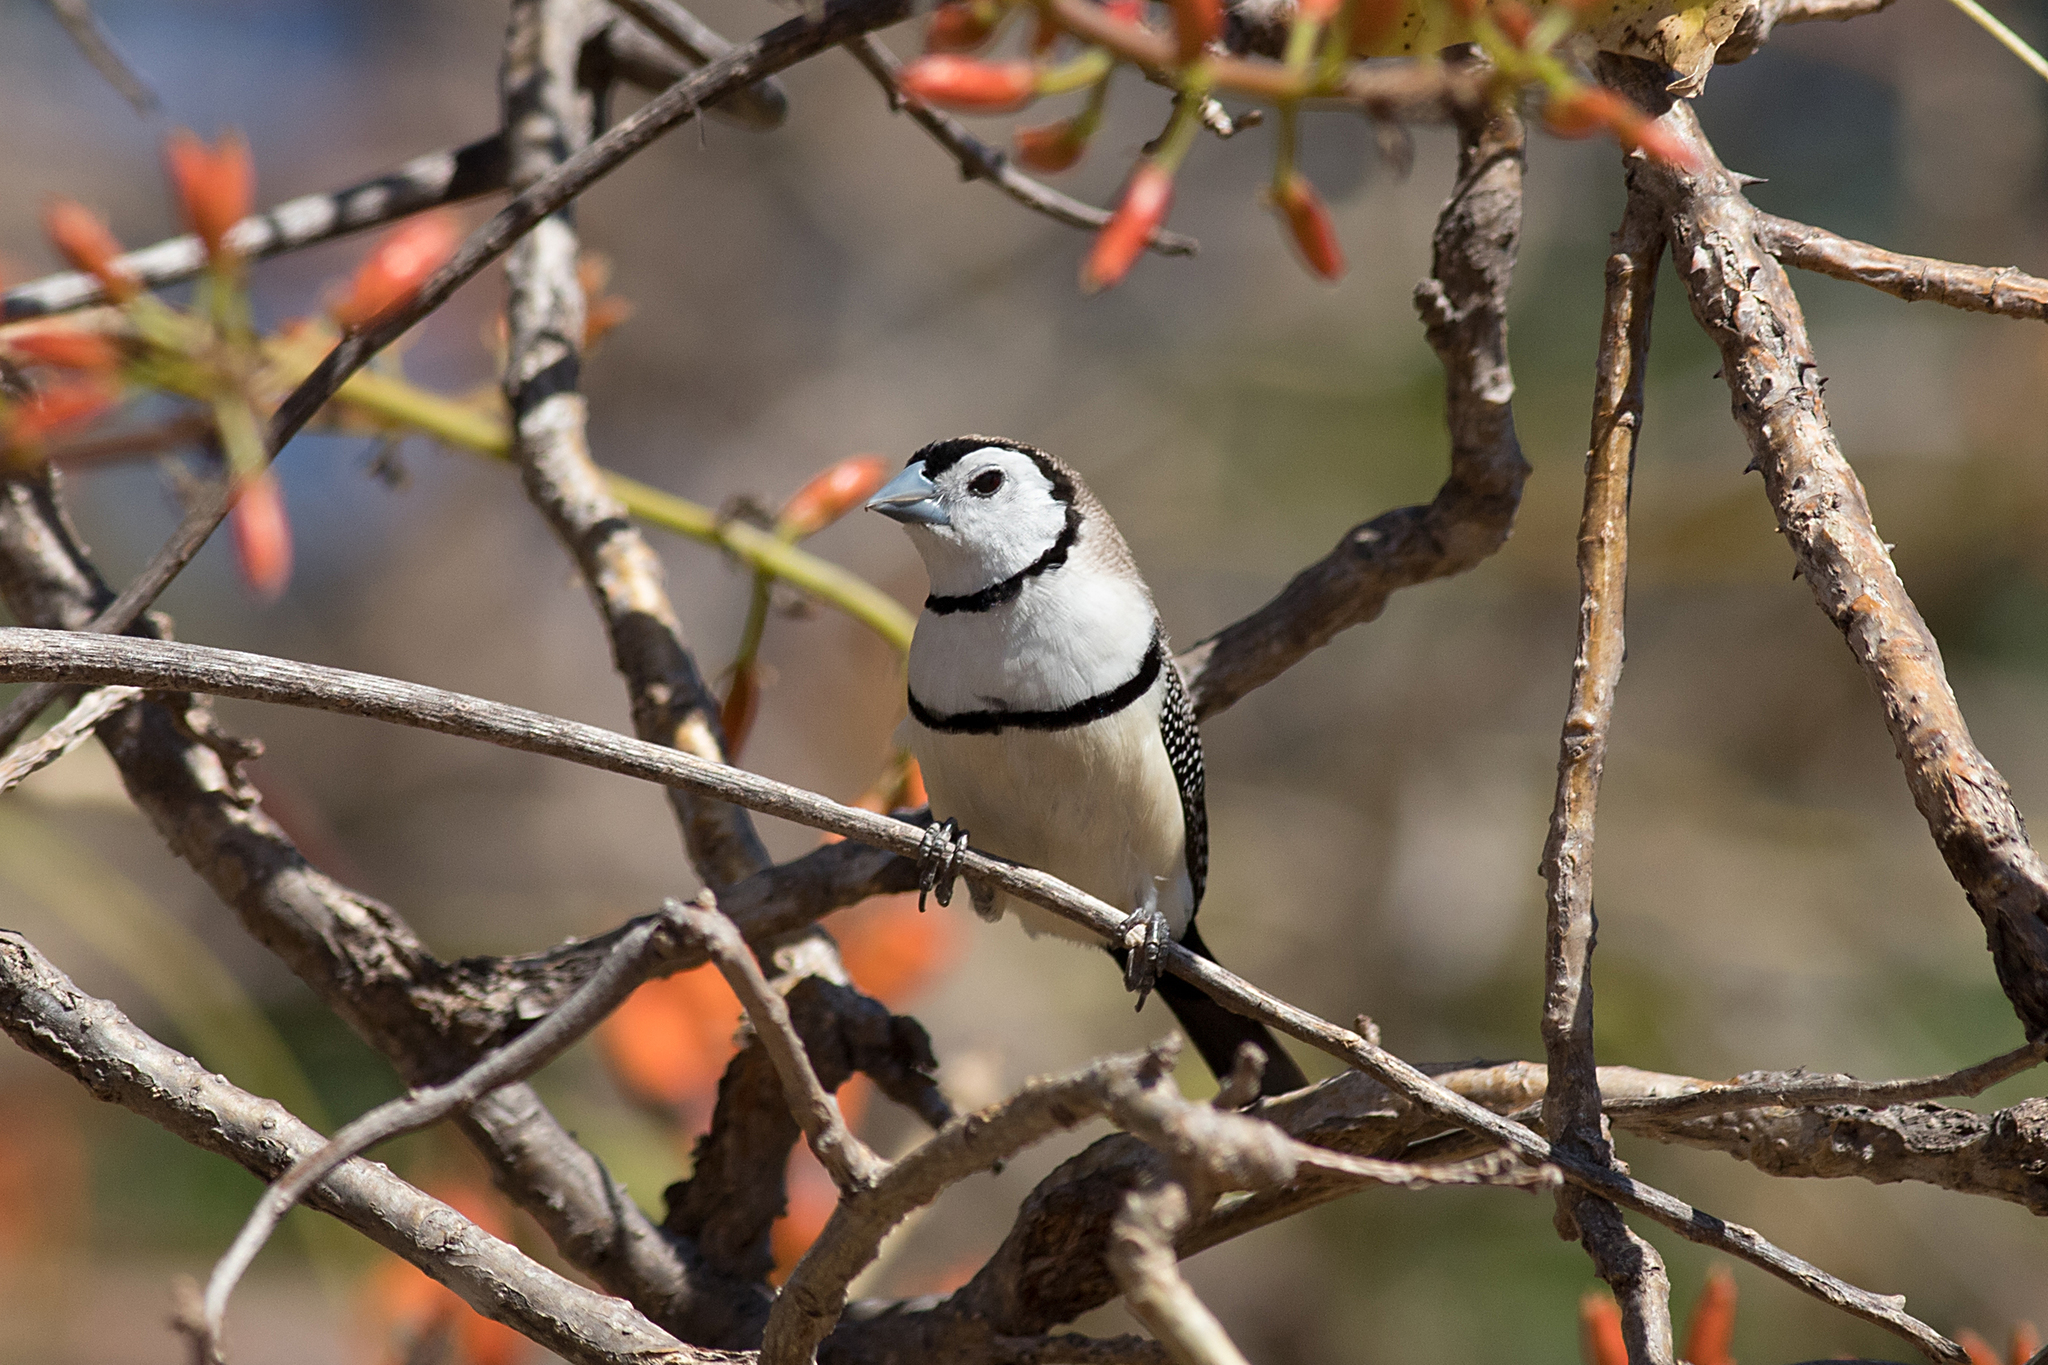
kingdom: Animalia
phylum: Chordata
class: Aves
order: Passeriformes
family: Estrildidae
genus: Taeniopygia
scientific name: Taeniopygia bichenovii
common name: Double-barred finch
